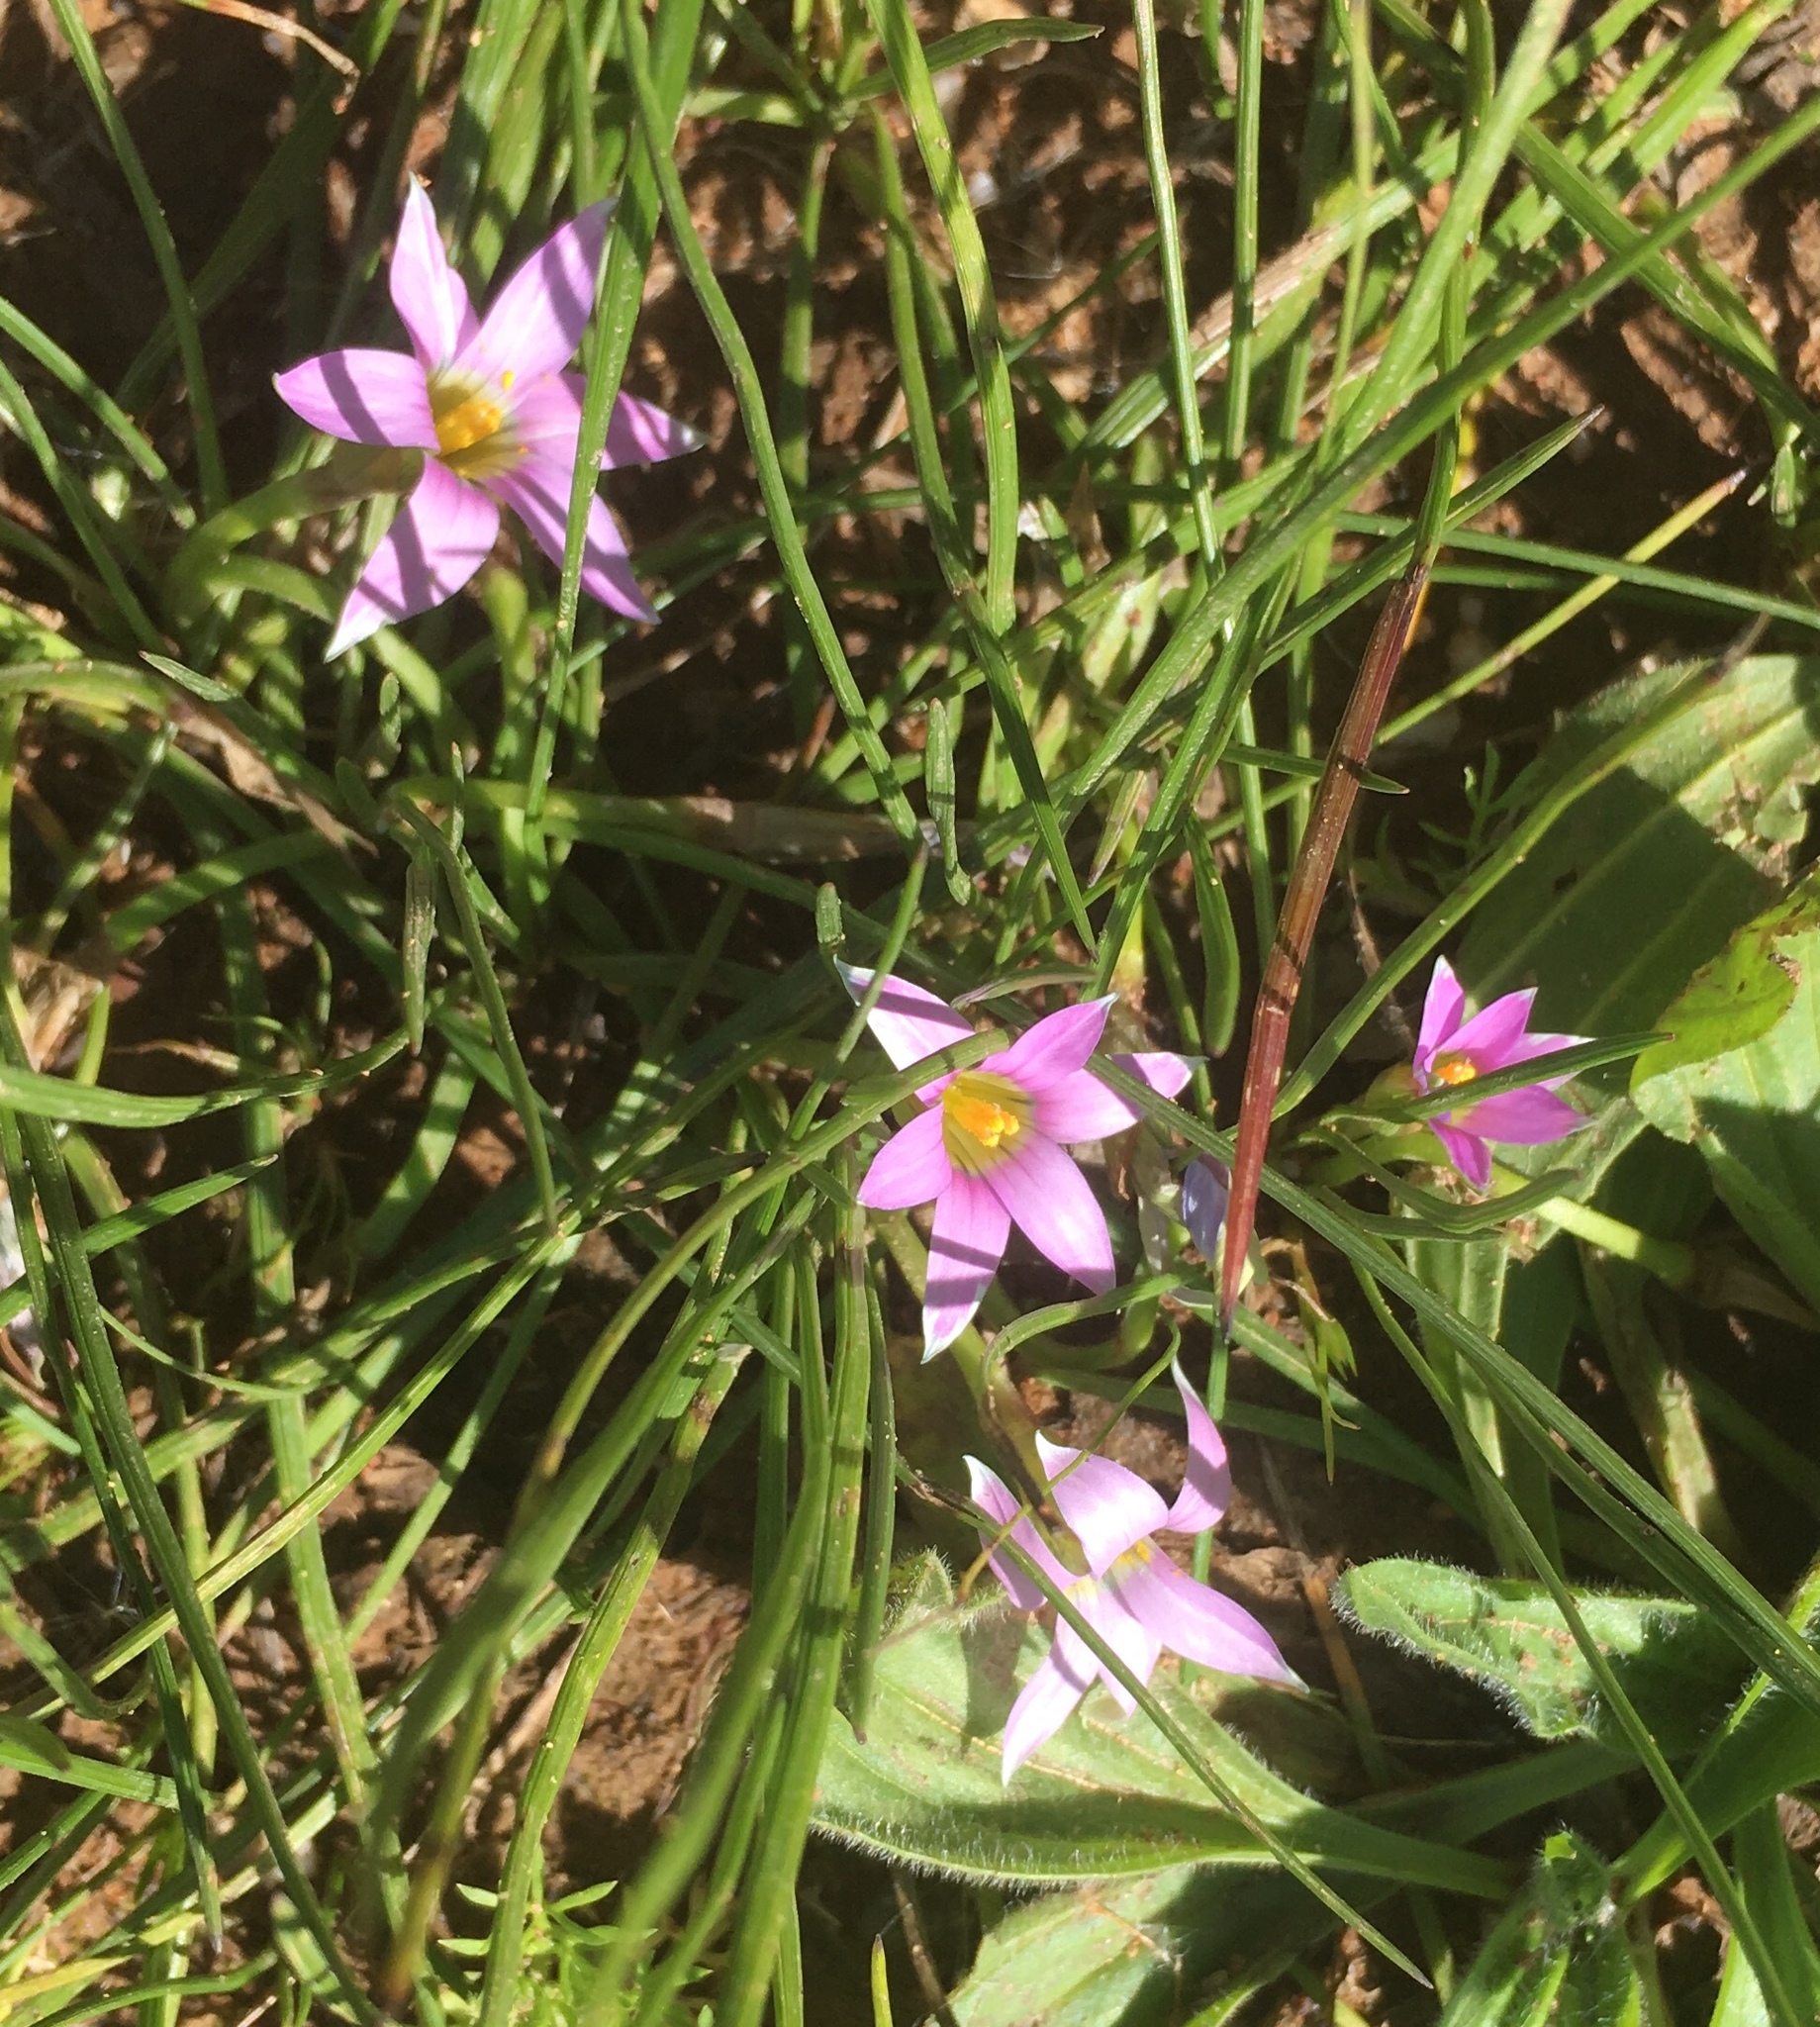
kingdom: Plantae
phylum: Tracheophyta
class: Liliopsida
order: Asparagales
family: Iridaceae
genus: Romulea
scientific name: Romulea rosea
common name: Oniongrass
